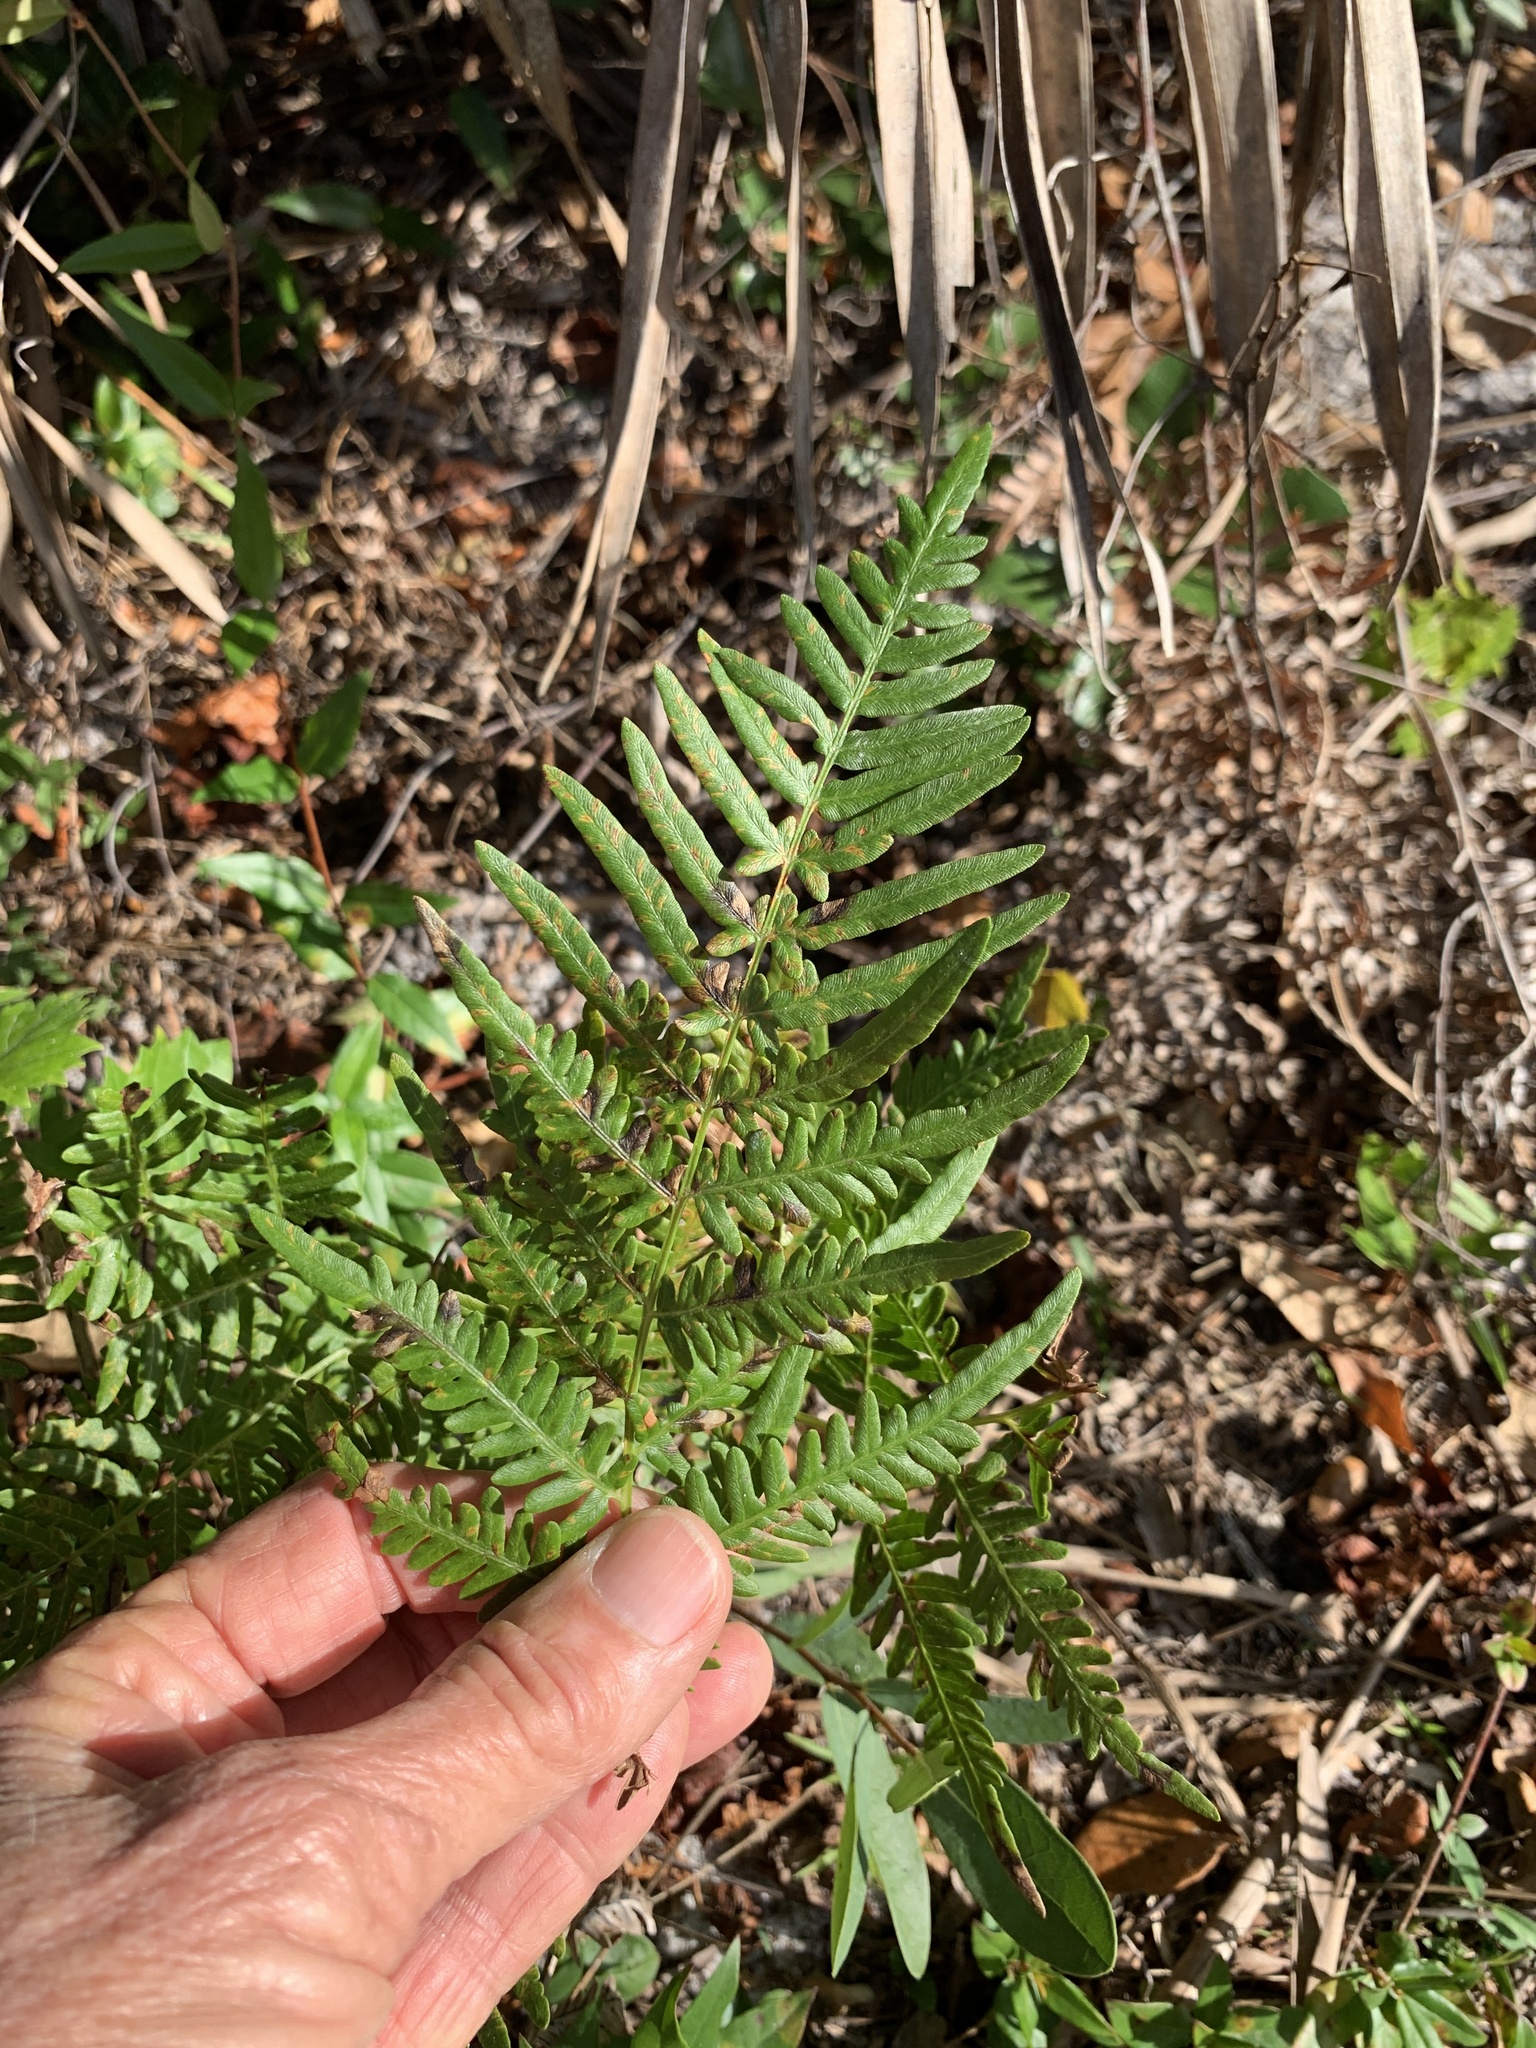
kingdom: Plantae
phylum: Tracheophyta
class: Polypodiopsida
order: Polypodiales
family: Dennstaedtiaceae
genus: Pteridium
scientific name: Pteridium aquilinum
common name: Bracken
